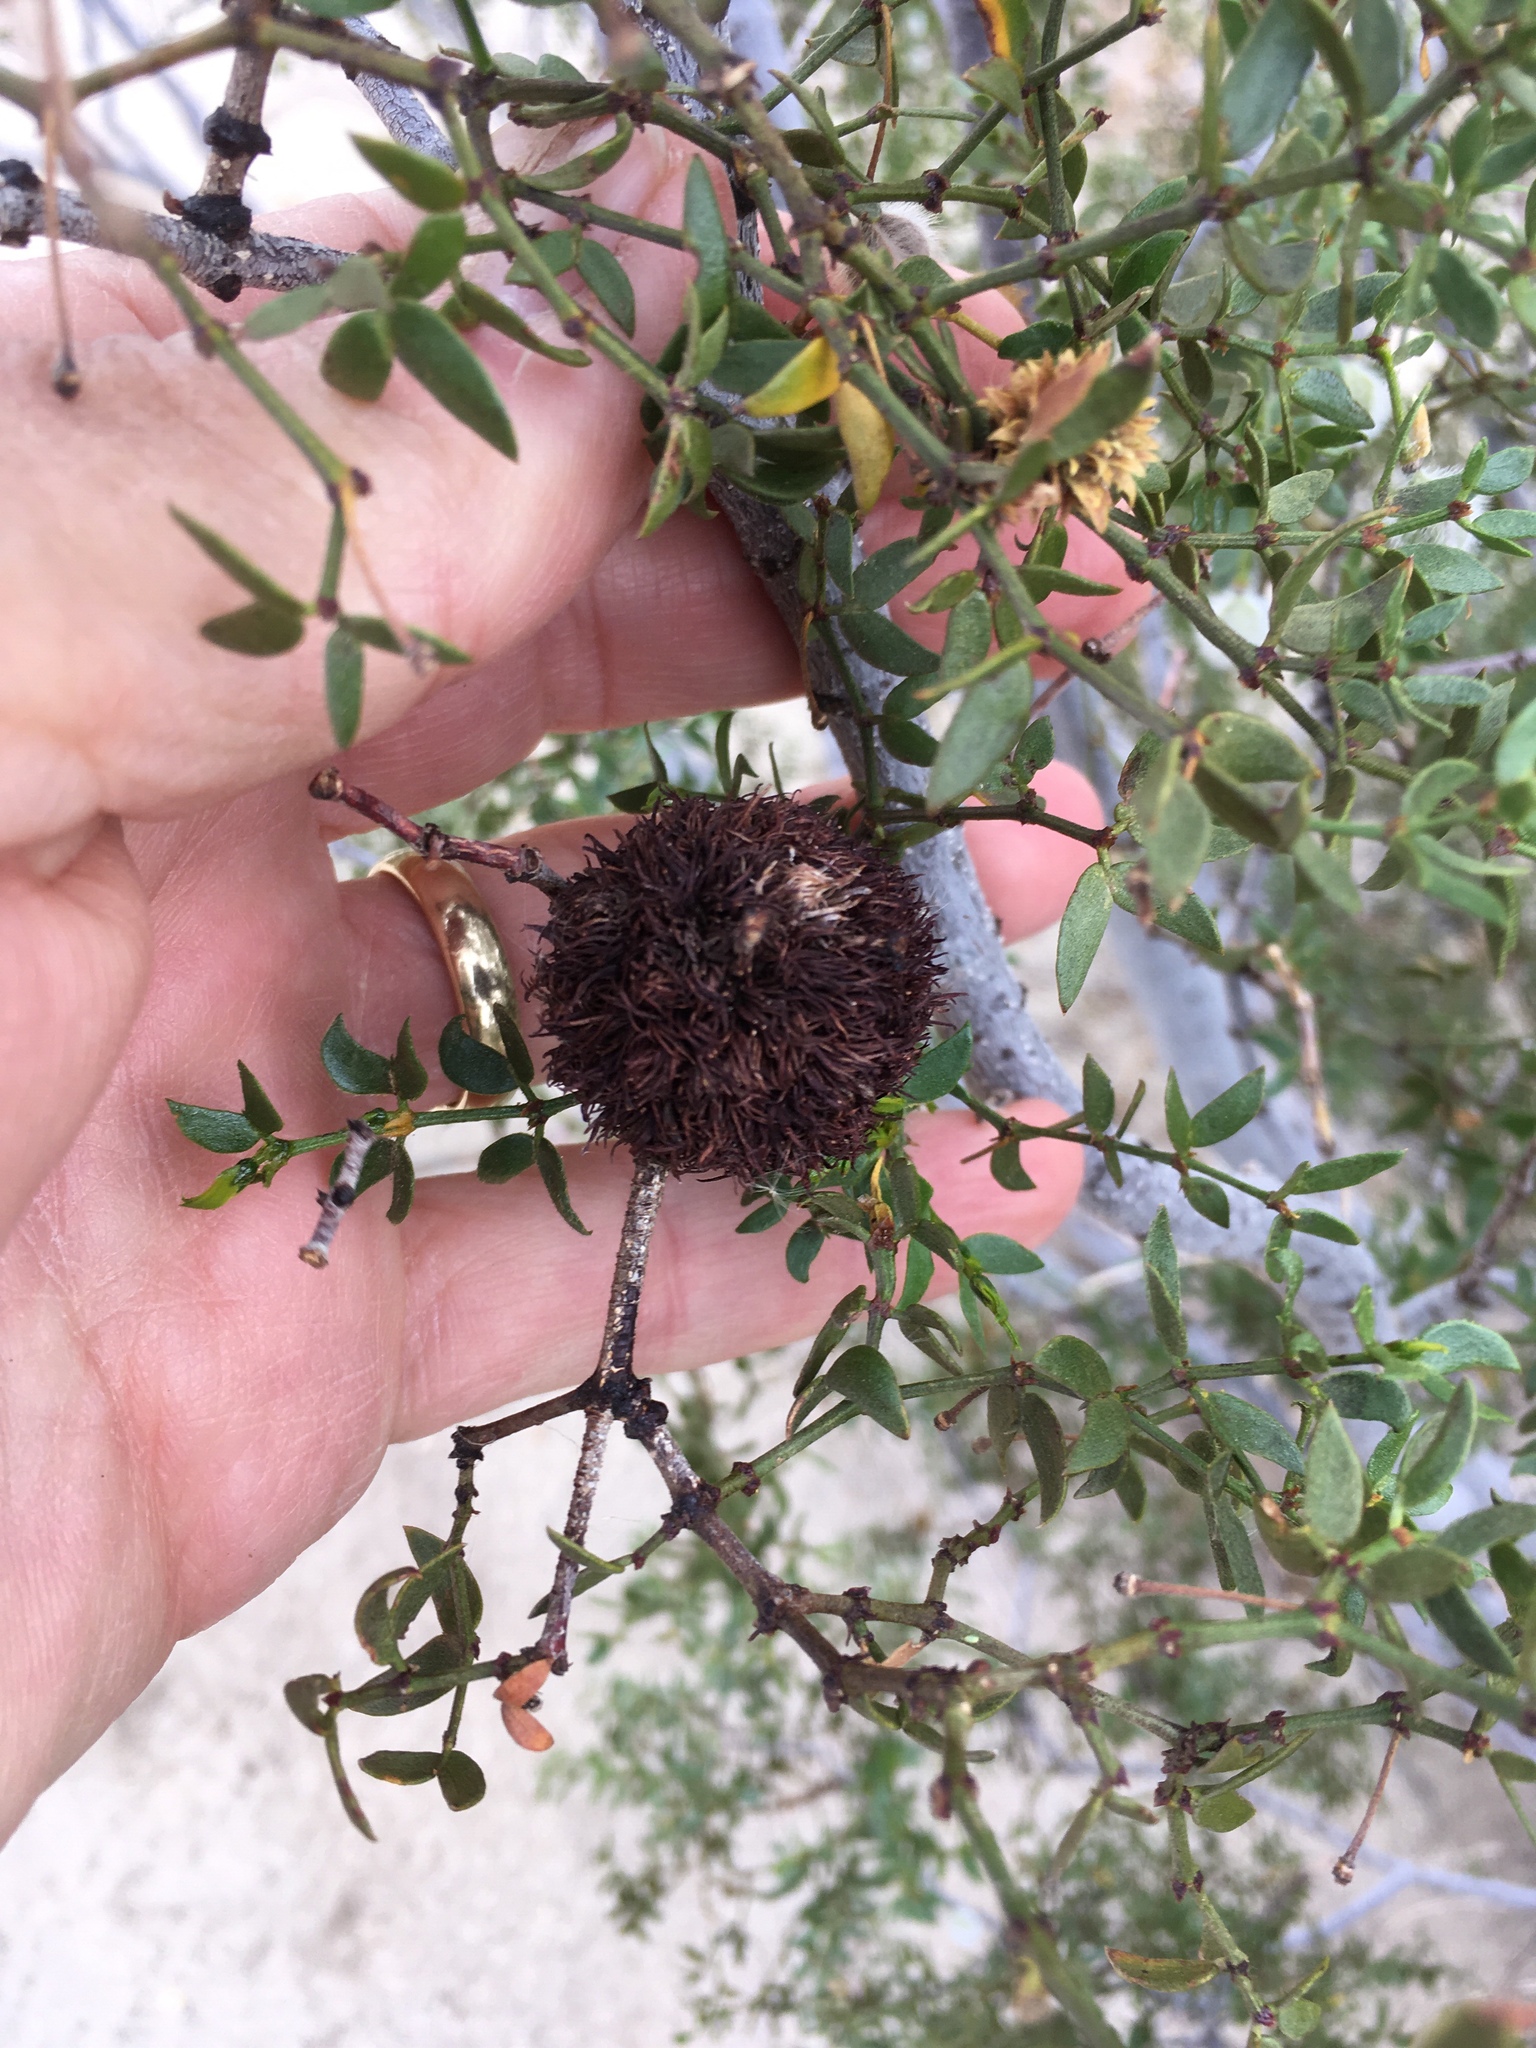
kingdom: Animalia
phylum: Arthropoda
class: Insecta
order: Diptera
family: Cecidomyiidae
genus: Asphondylia
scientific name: Asphondylia auripila
